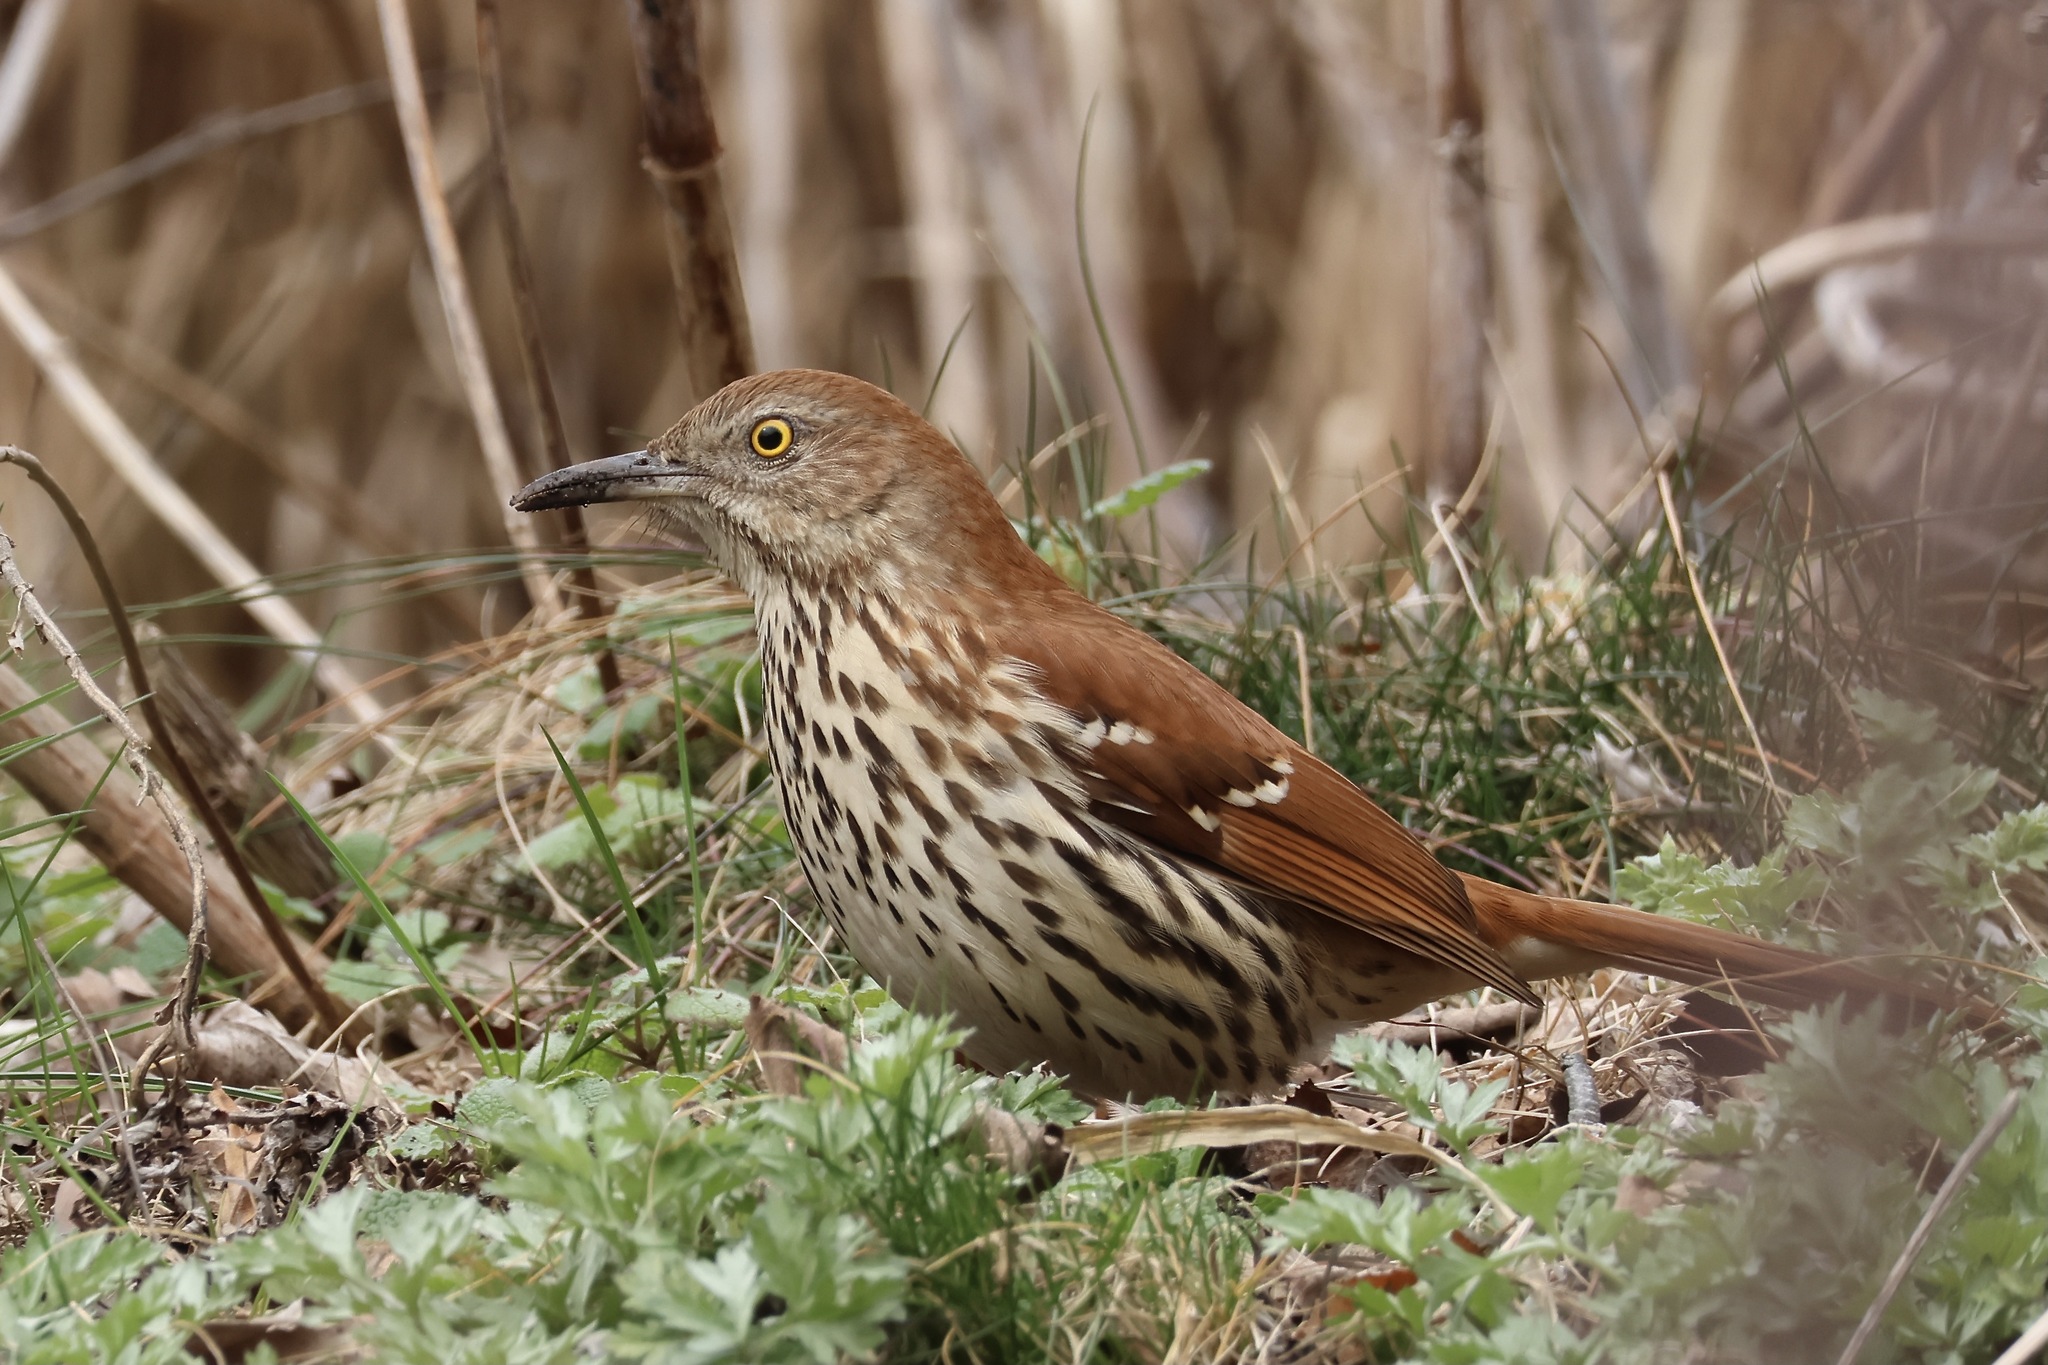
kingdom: Animalia
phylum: Chordata
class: Aves
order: Passeriformes
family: Mimidae
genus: Toxostoma
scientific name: Toxostoma rufum
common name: Brown thrasher
